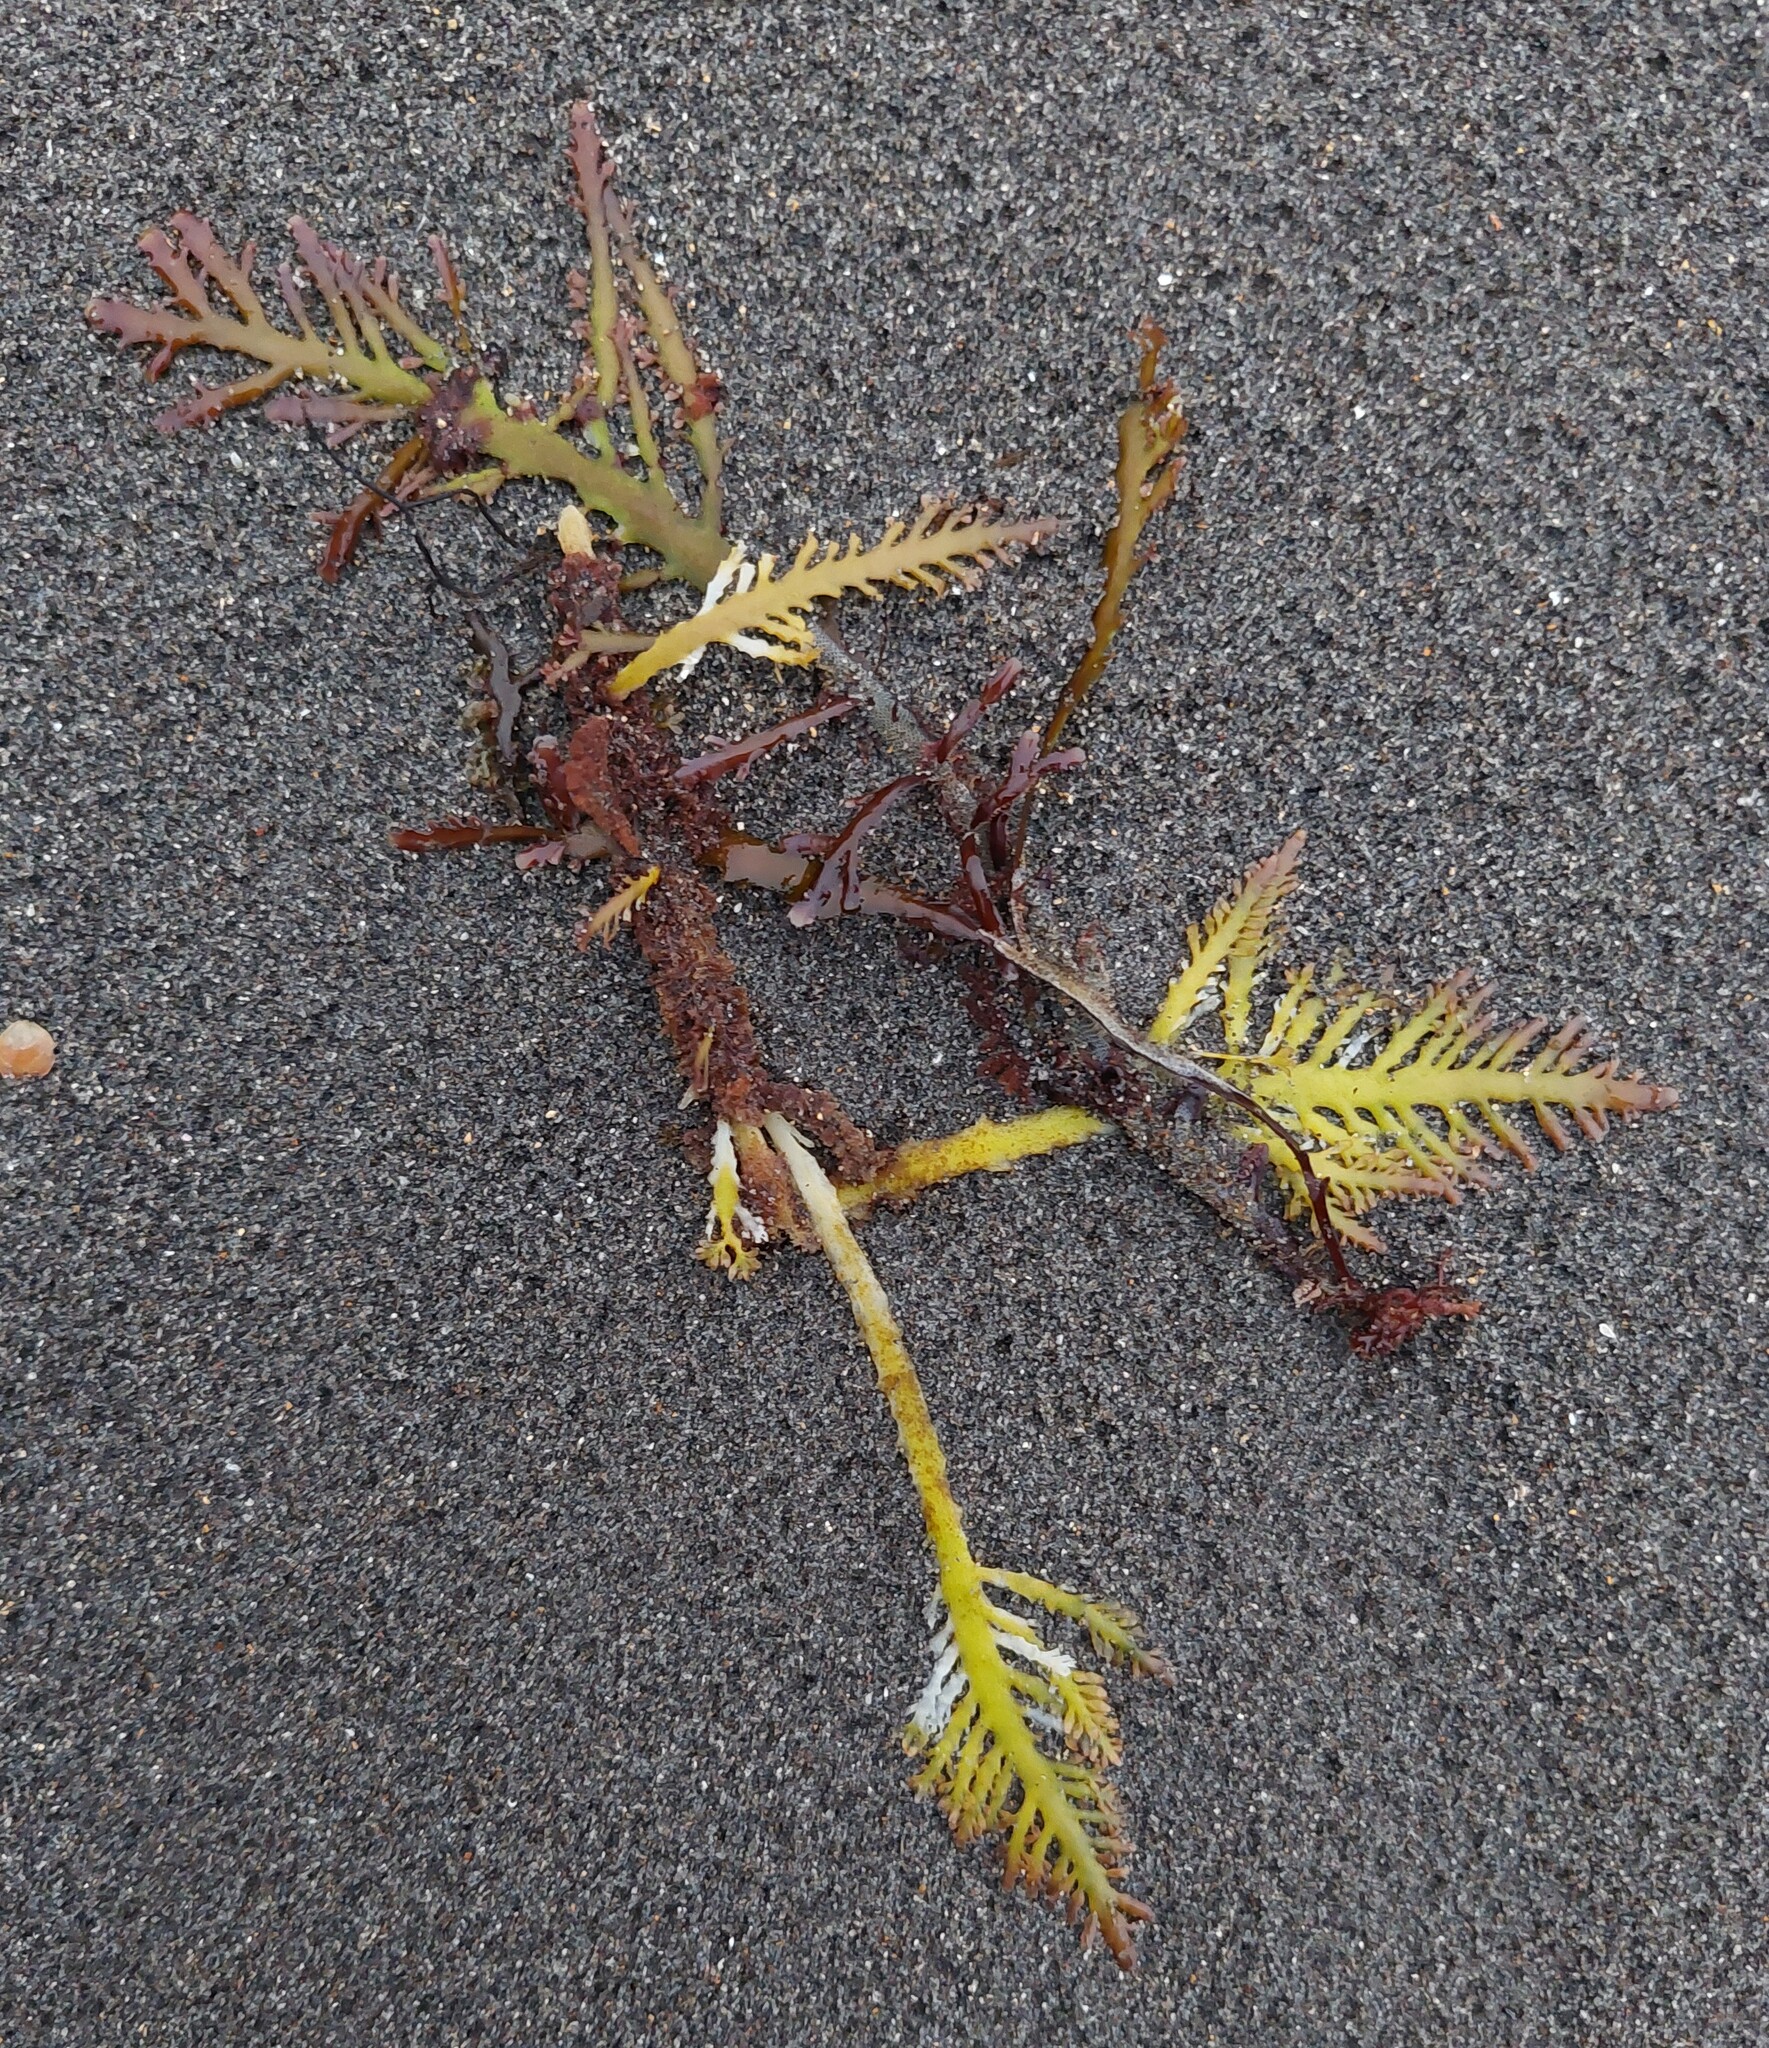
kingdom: Plantae
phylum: Rhodophyta
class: Florideophyceae
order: Gelidiales
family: Pterocladiaceae
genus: Pterocladia
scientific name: Pterocladia lucida
